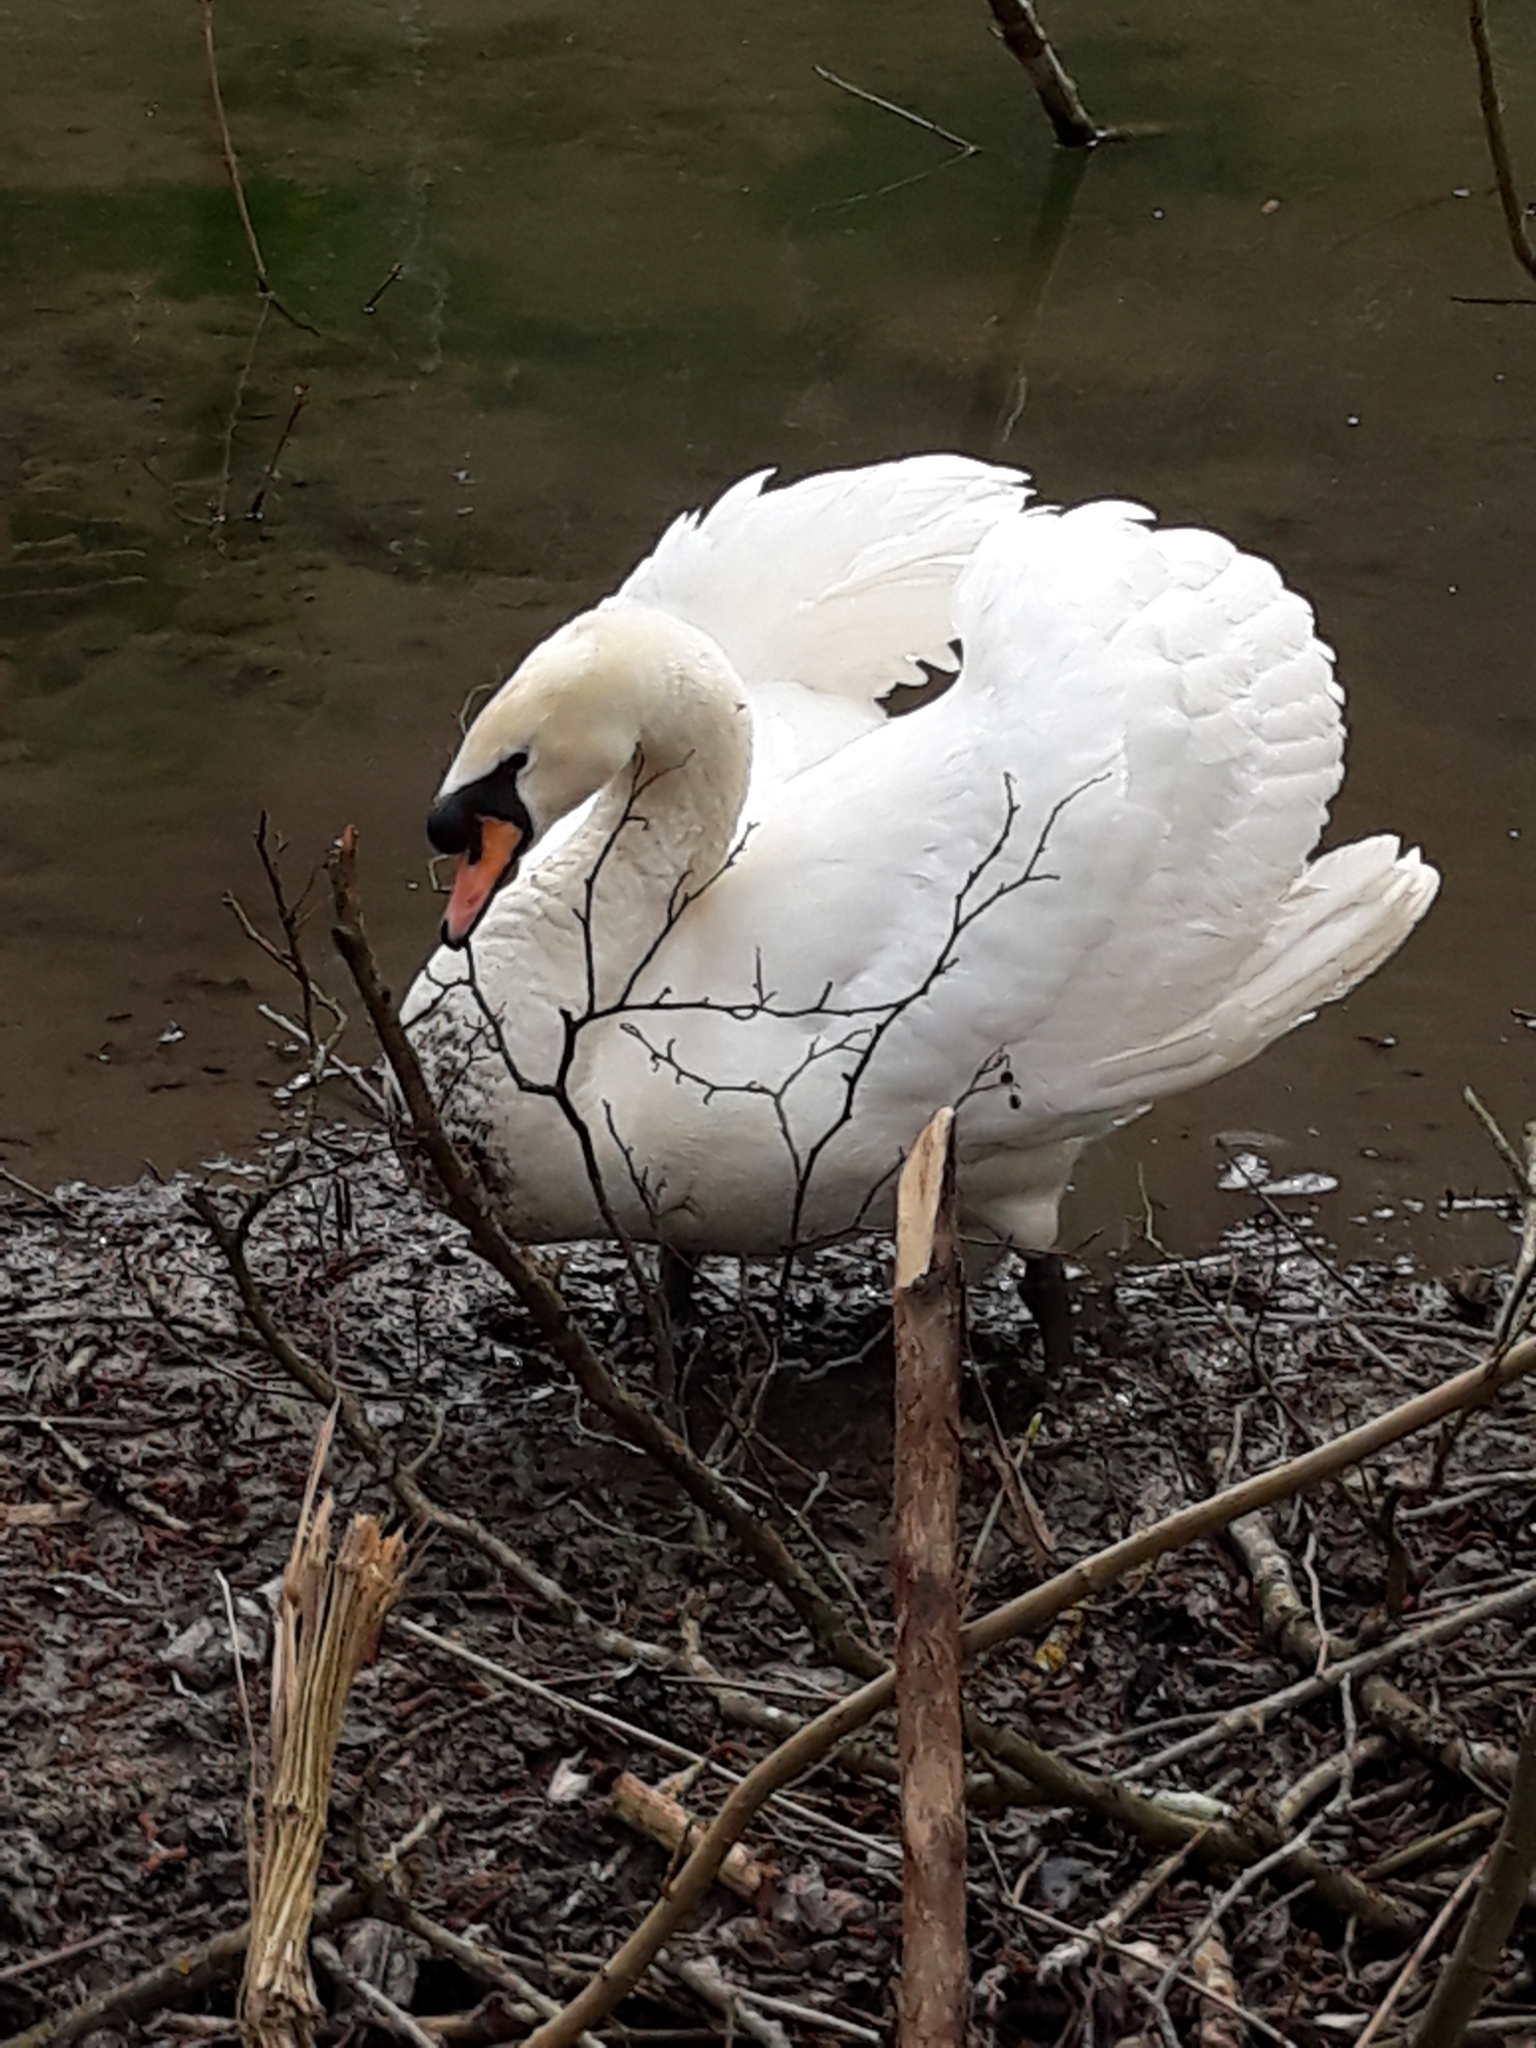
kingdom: Animalia
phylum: Chordata
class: Aves
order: Anseriformes
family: Anatidae
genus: Cygnus
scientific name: Cygnus olor
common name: Mute swan
